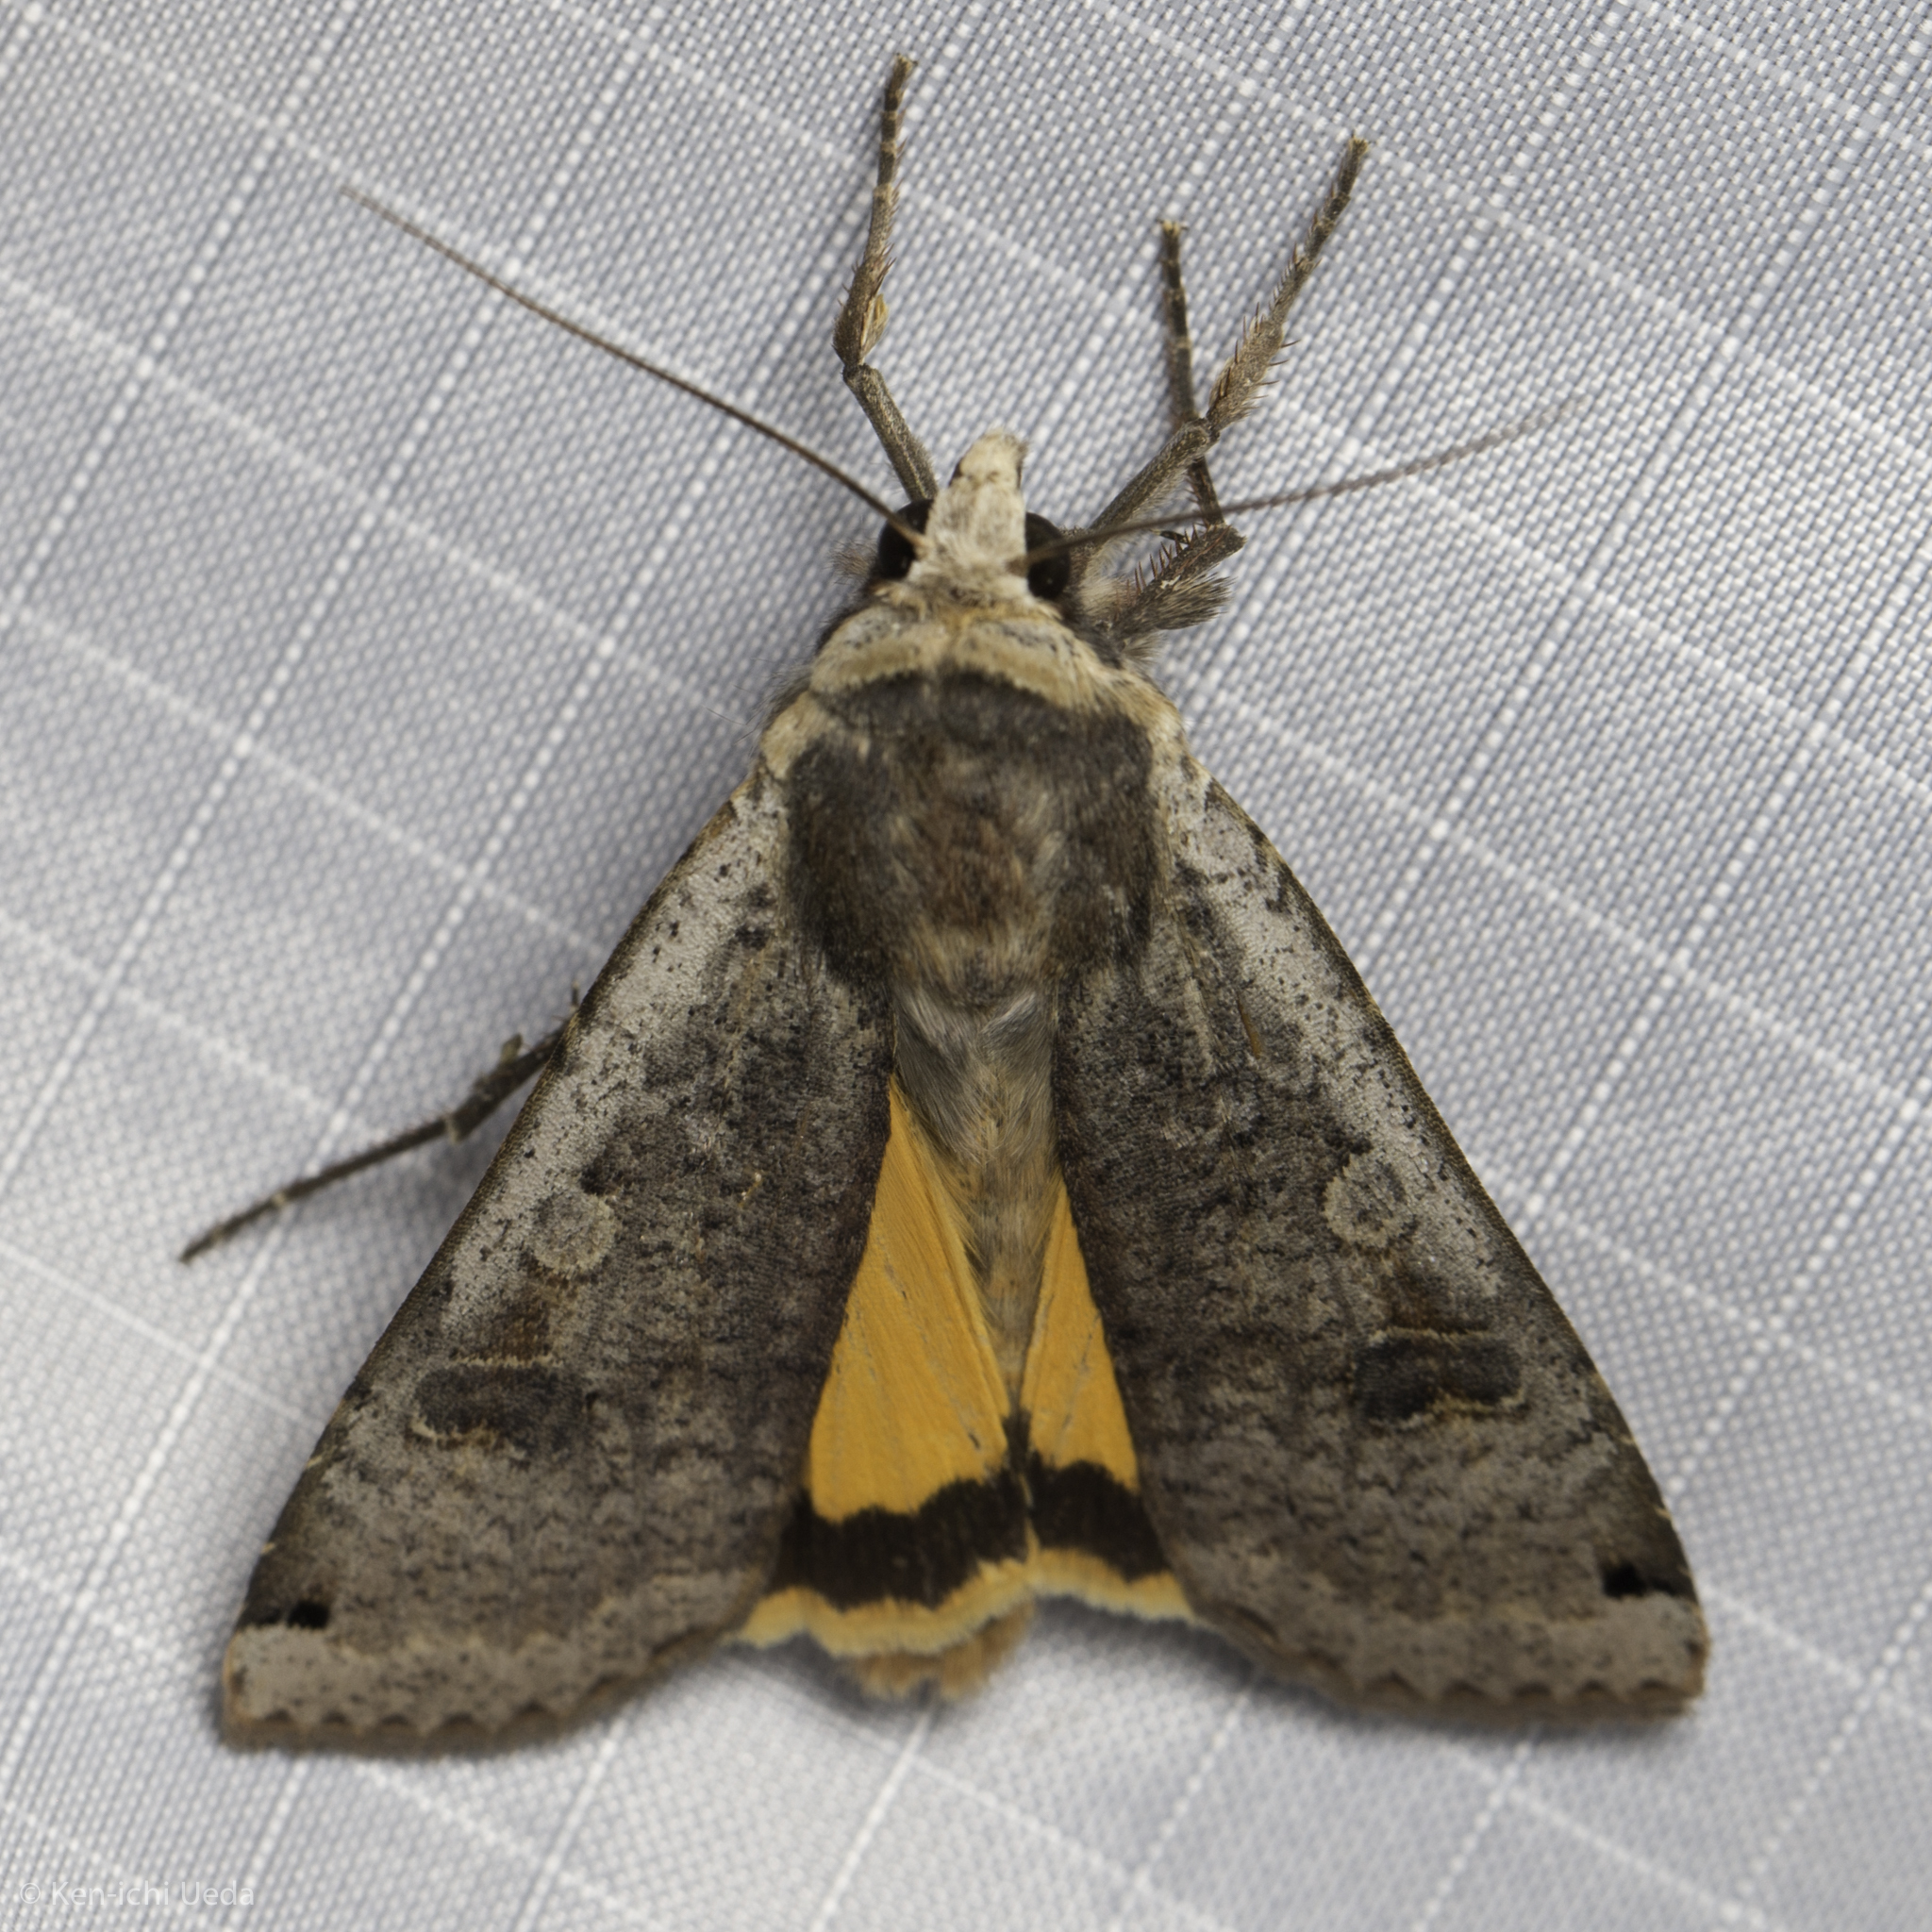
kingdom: Animalia
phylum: Arthropoda
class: Insecta
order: Lepidoptera
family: Noctuidae
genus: Noctua
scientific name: Noctua pronuba
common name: Large yellow underwing
